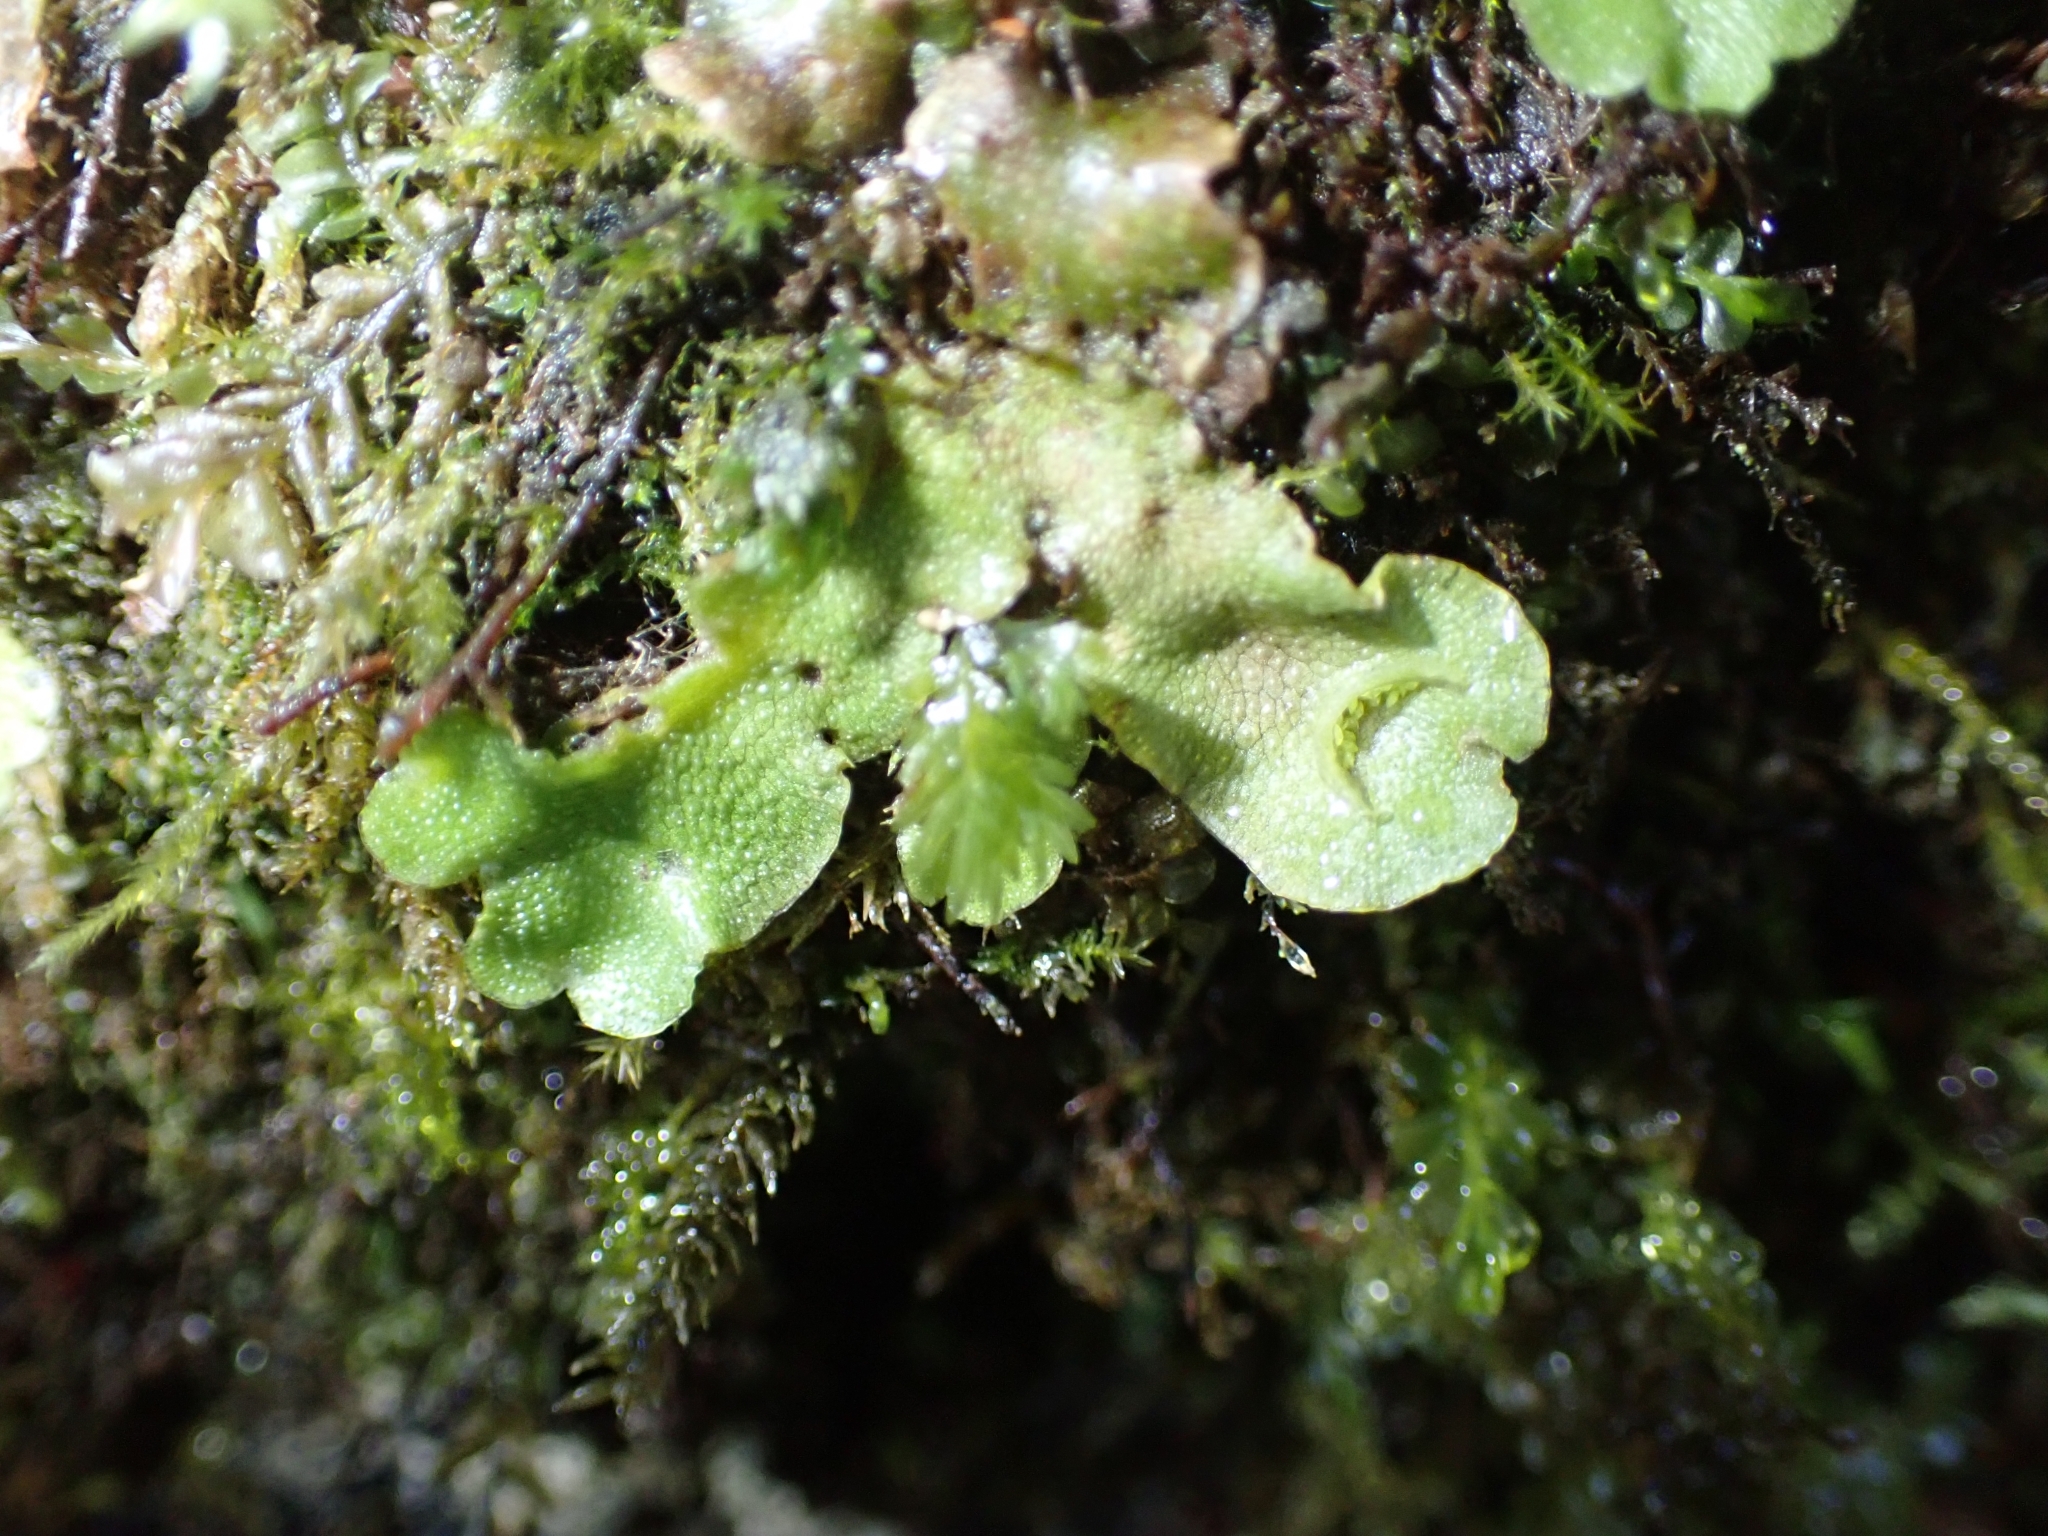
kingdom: Plantae
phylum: Marchantiophyta
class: Marchantiopsida
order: Lunulariales
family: Lunulariaceae
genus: Lunularia
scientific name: Lunularia cruciata
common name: Crescent-cup liverwort
